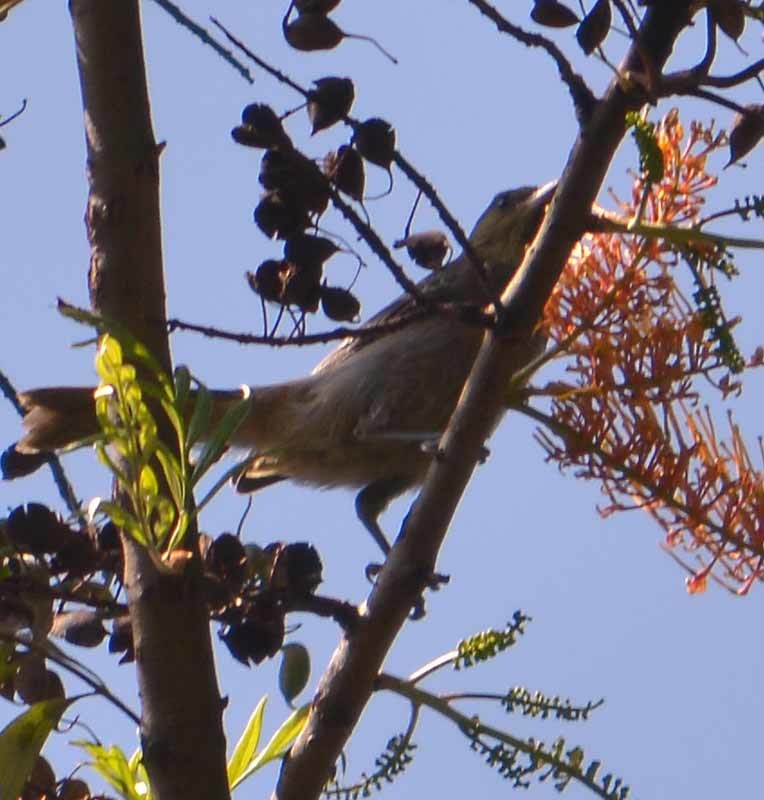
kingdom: Animalia
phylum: Chordata
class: Aves
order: Passeriformes
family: Icteridae
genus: Icterus
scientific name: Icterus spurius
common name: Orchard oriole
